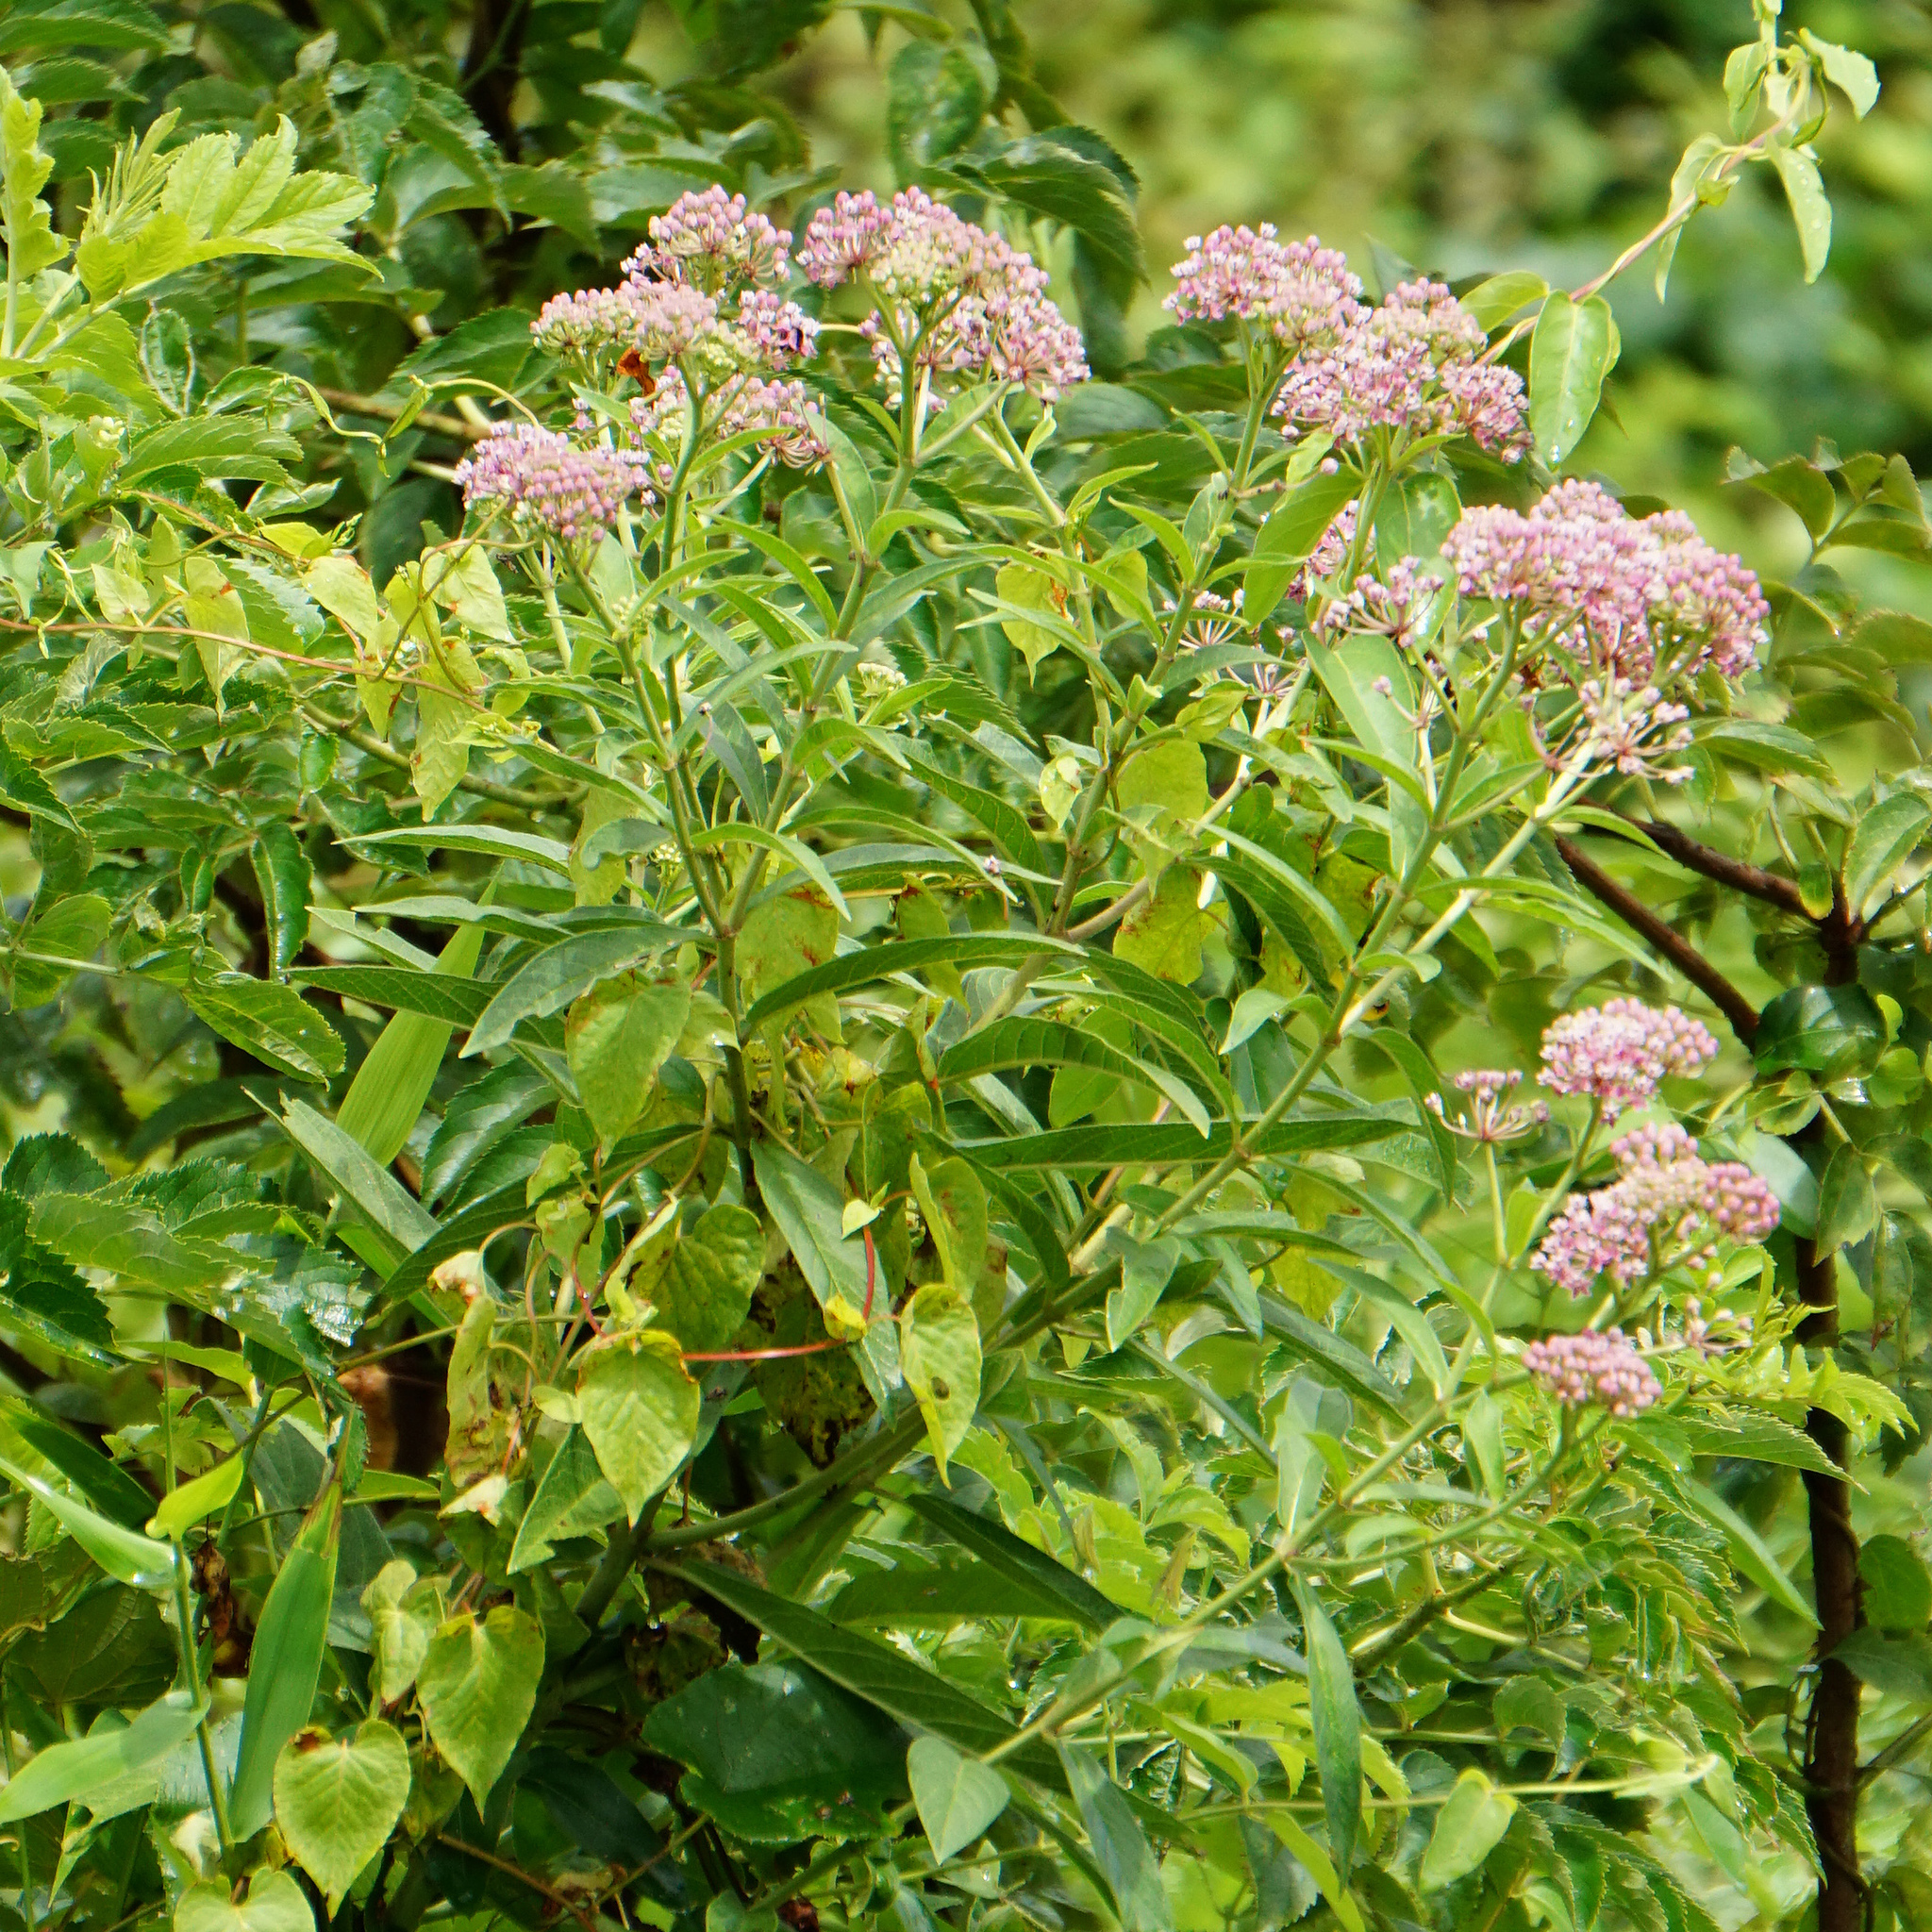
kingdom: Plantae
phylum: Tracheophyta
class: Magnoliopsida
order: Gentianales
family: Apocynaceae
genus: Asclepias
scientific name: Asclepias incarnata
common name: Swamp milkweed
